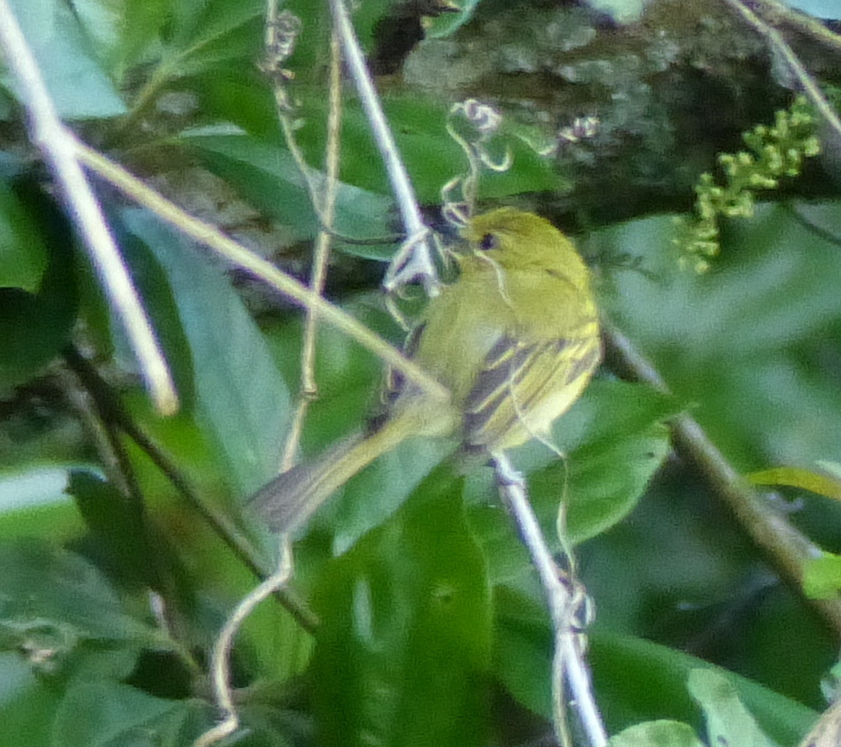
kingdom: Animalia
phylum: Chordata
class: Aves
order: Passeriformes
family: Tyrannidae
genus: Tolmomyias
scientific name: Tolmomyias flaviventris
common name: Ochre-lored flatbill
